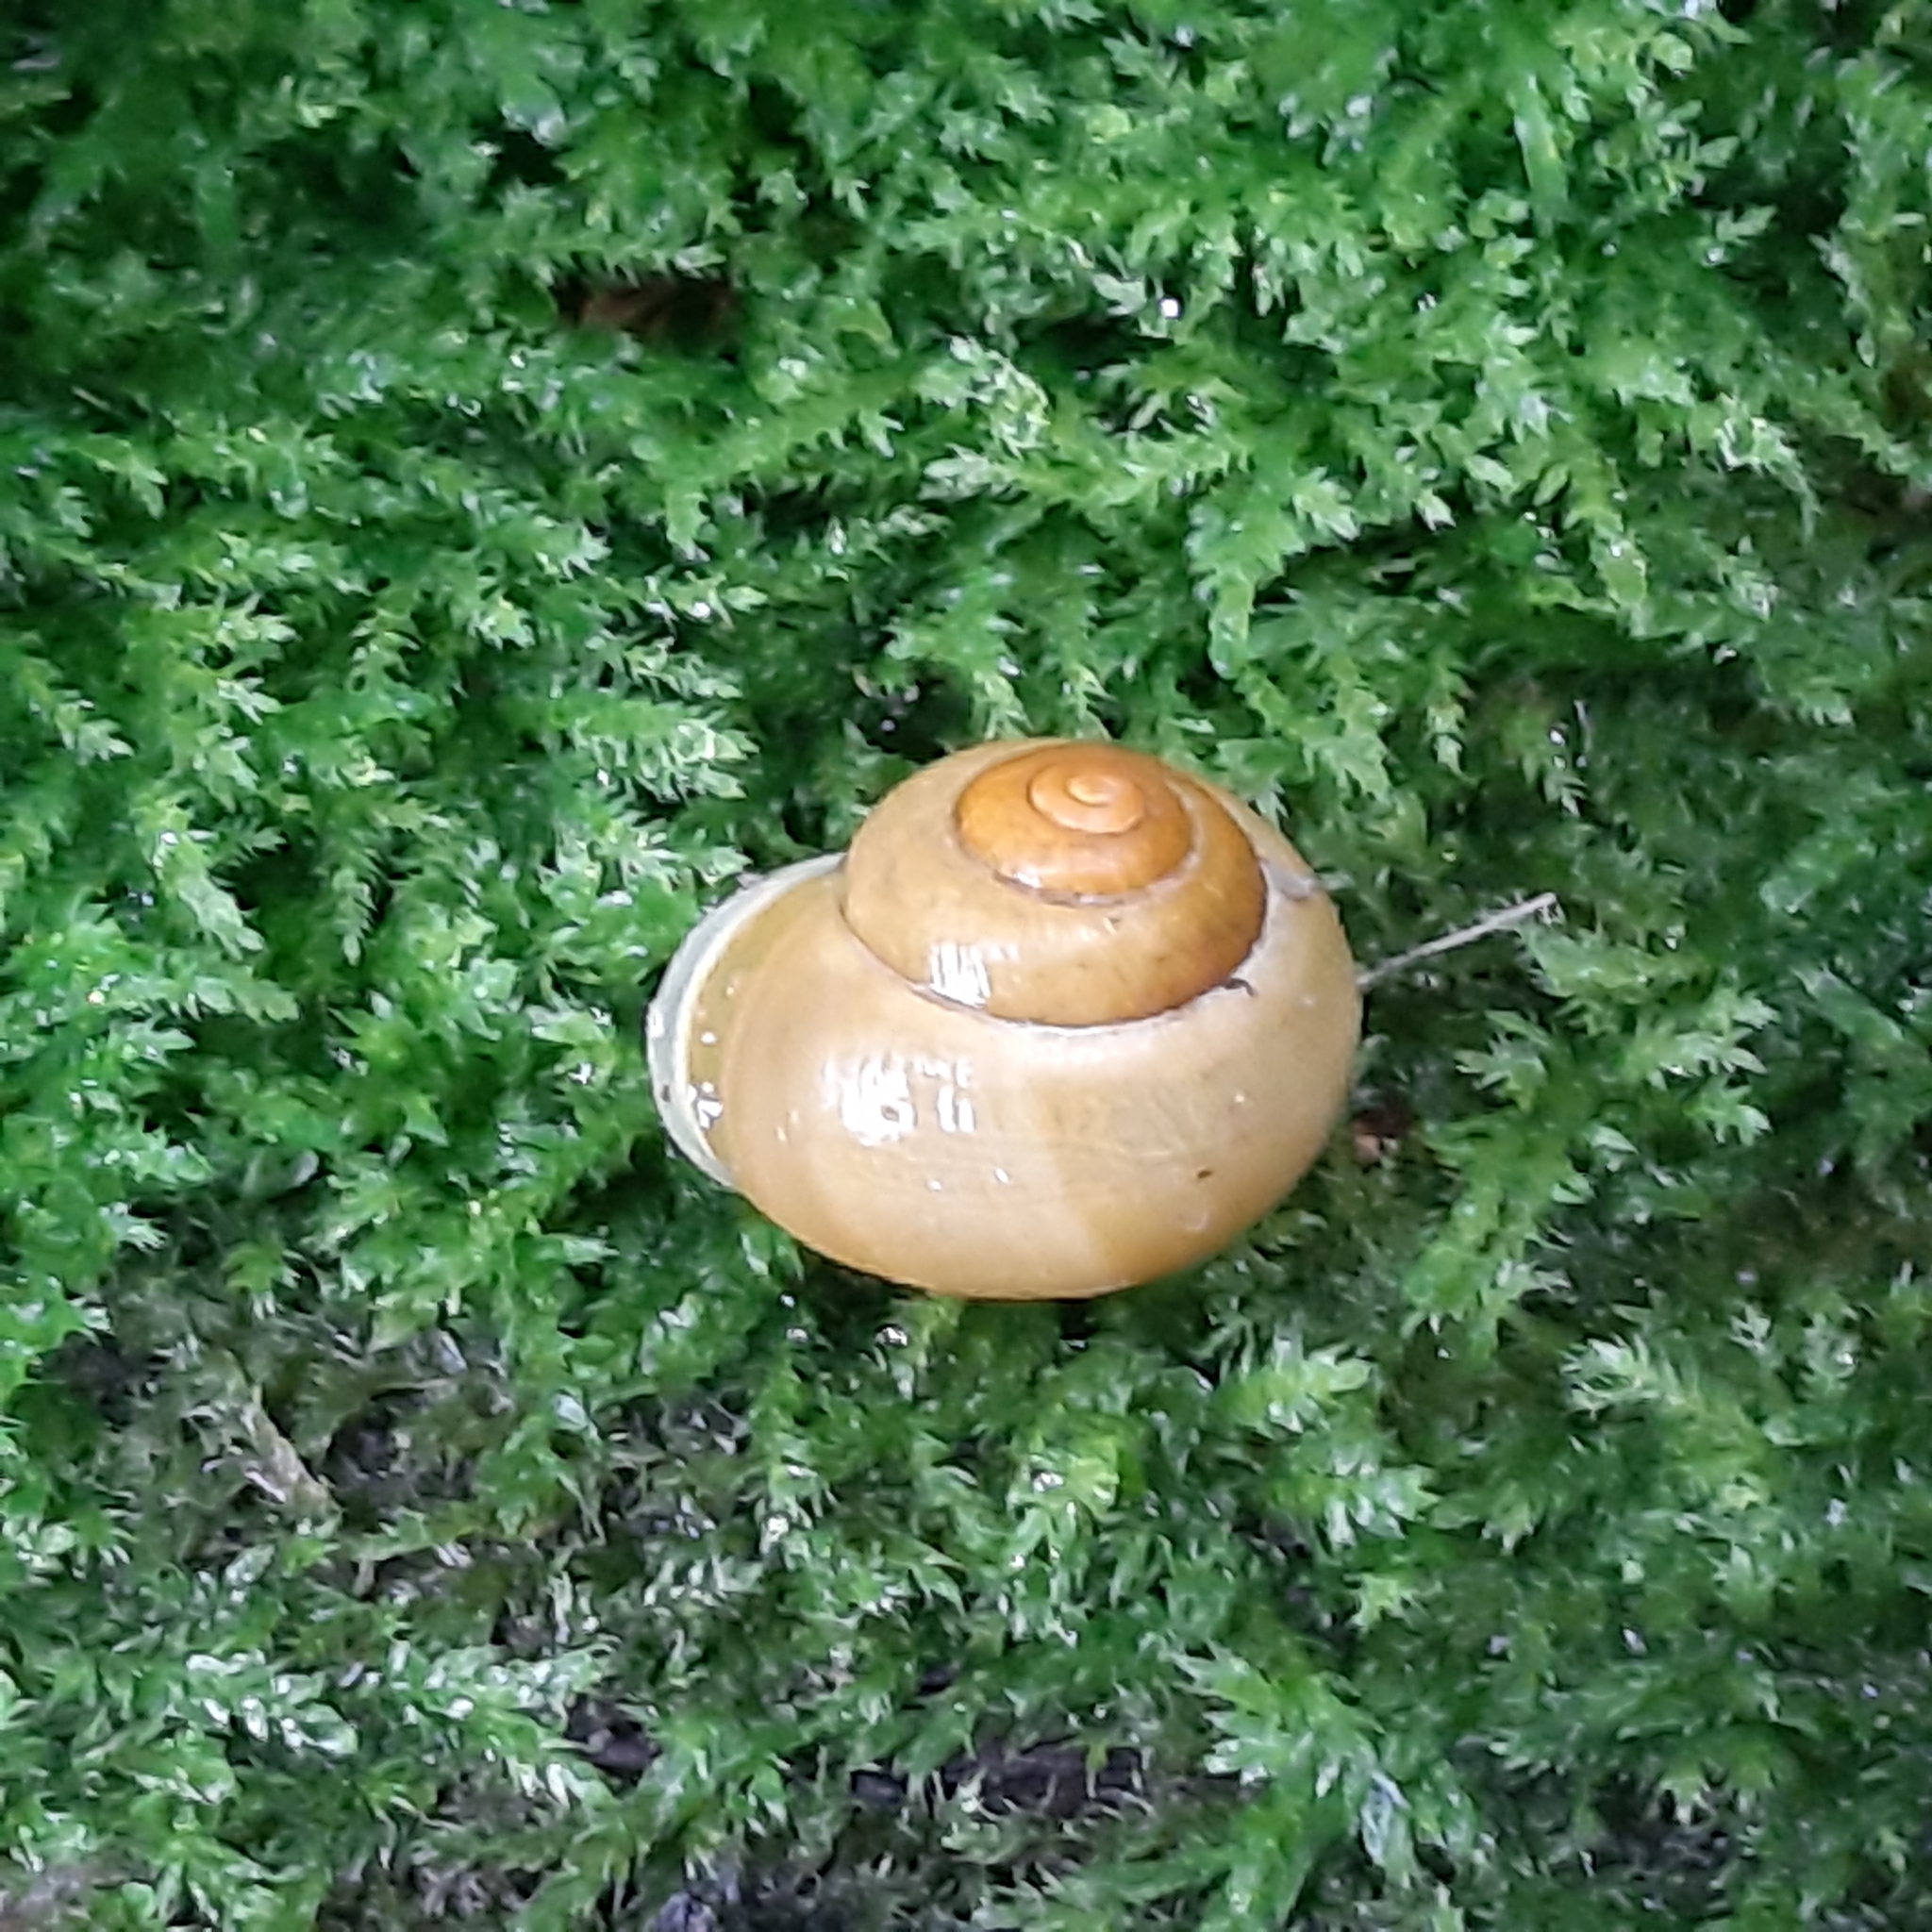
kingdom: Animalia
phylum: Mollusca
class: Gastropoda
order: Stylommatophora
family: Helicidae
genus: Cepaea
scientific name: Cepaea hortensis
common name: White-lip gardensnail
